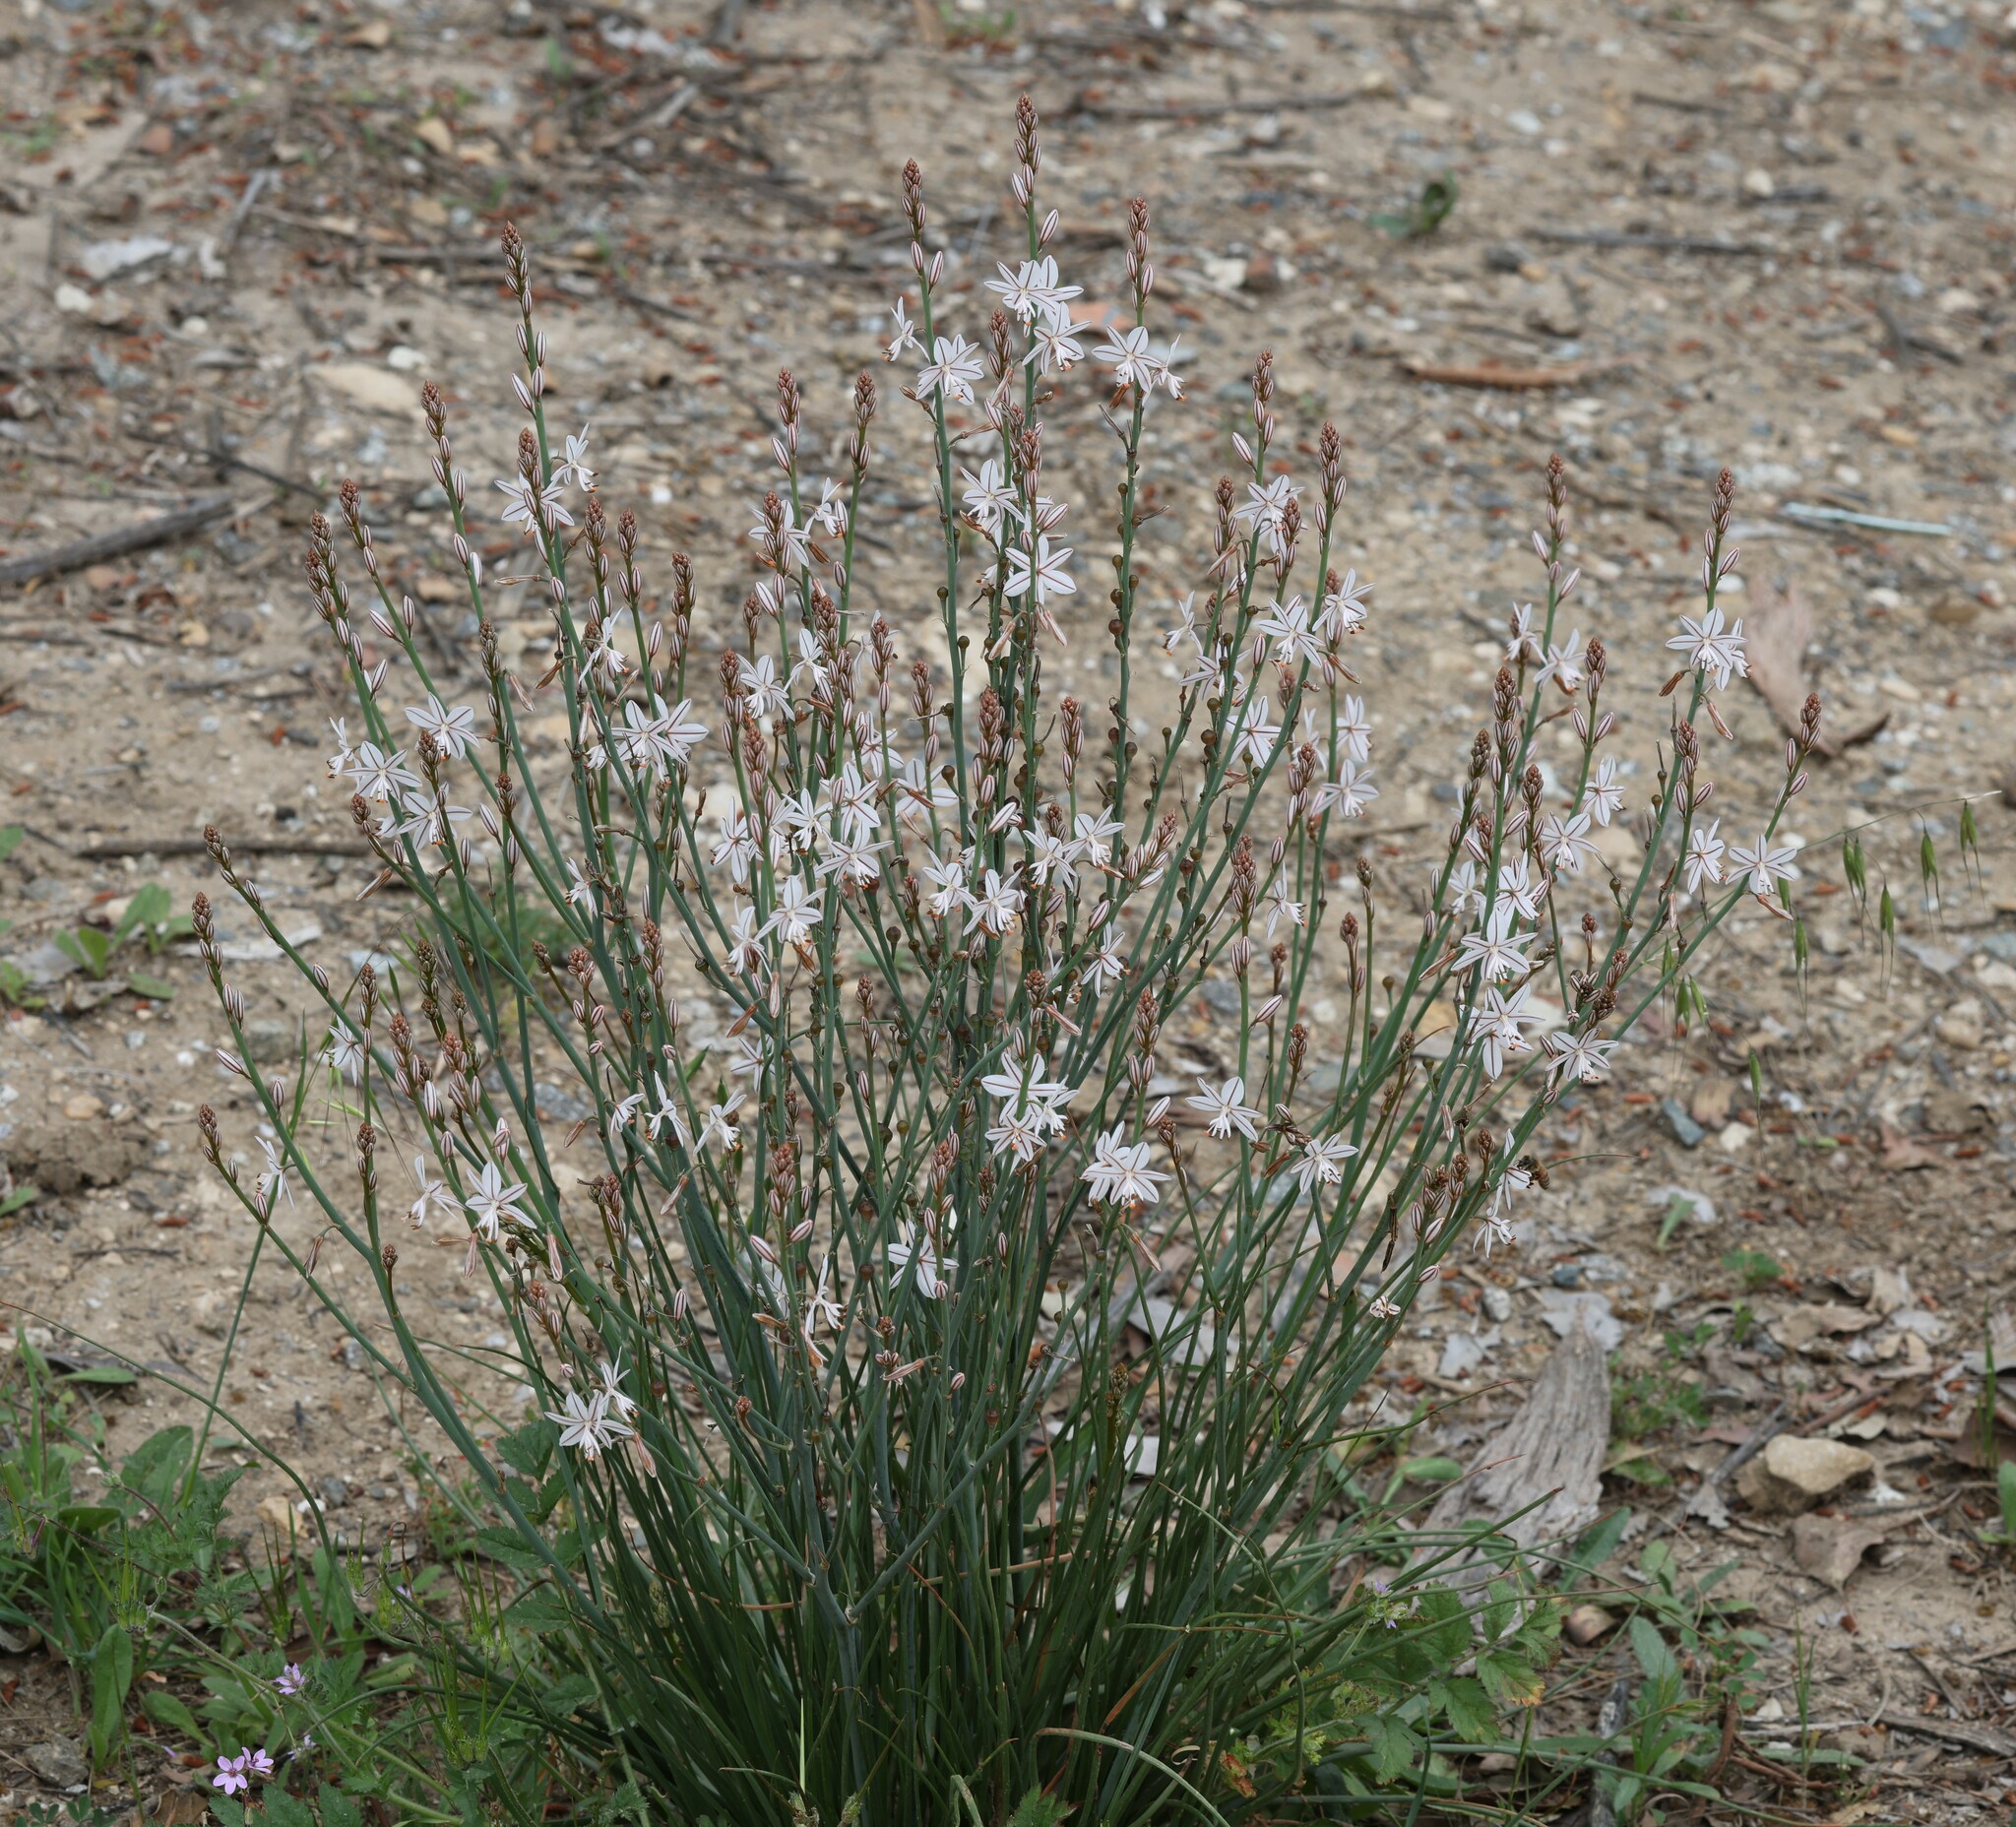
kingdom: Plantae
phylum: Tracheophyta
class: Liliopsida
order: Asparagales
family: Asphodelaceae
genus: Asphodelus
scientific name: Asphodelus fistulosus
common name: Onionweed
